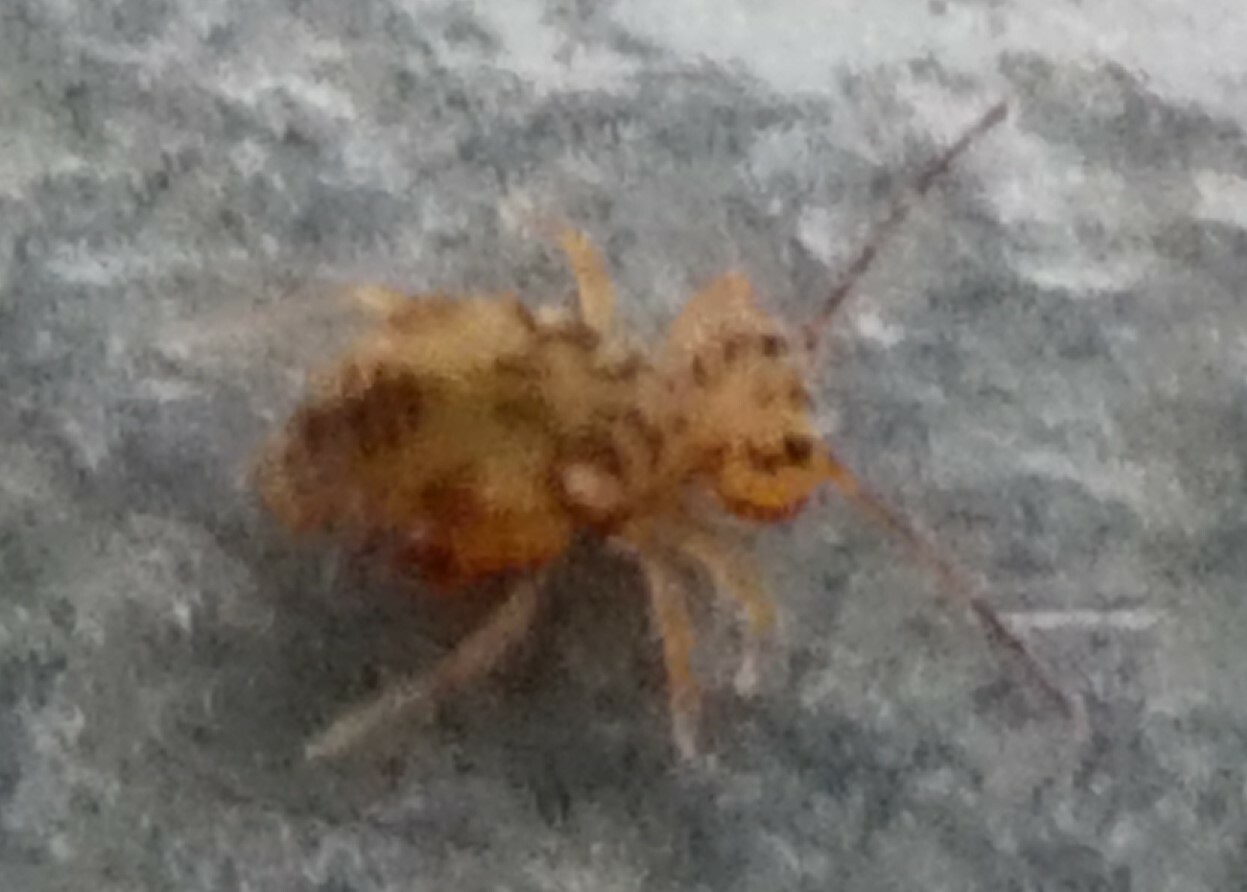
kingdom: Animalia
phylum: Arthropoda
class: Collembola
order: Symphypleona
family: Dicyrtomidae
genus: Dicyrtomina
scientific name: Dicyrtomina saundersi
